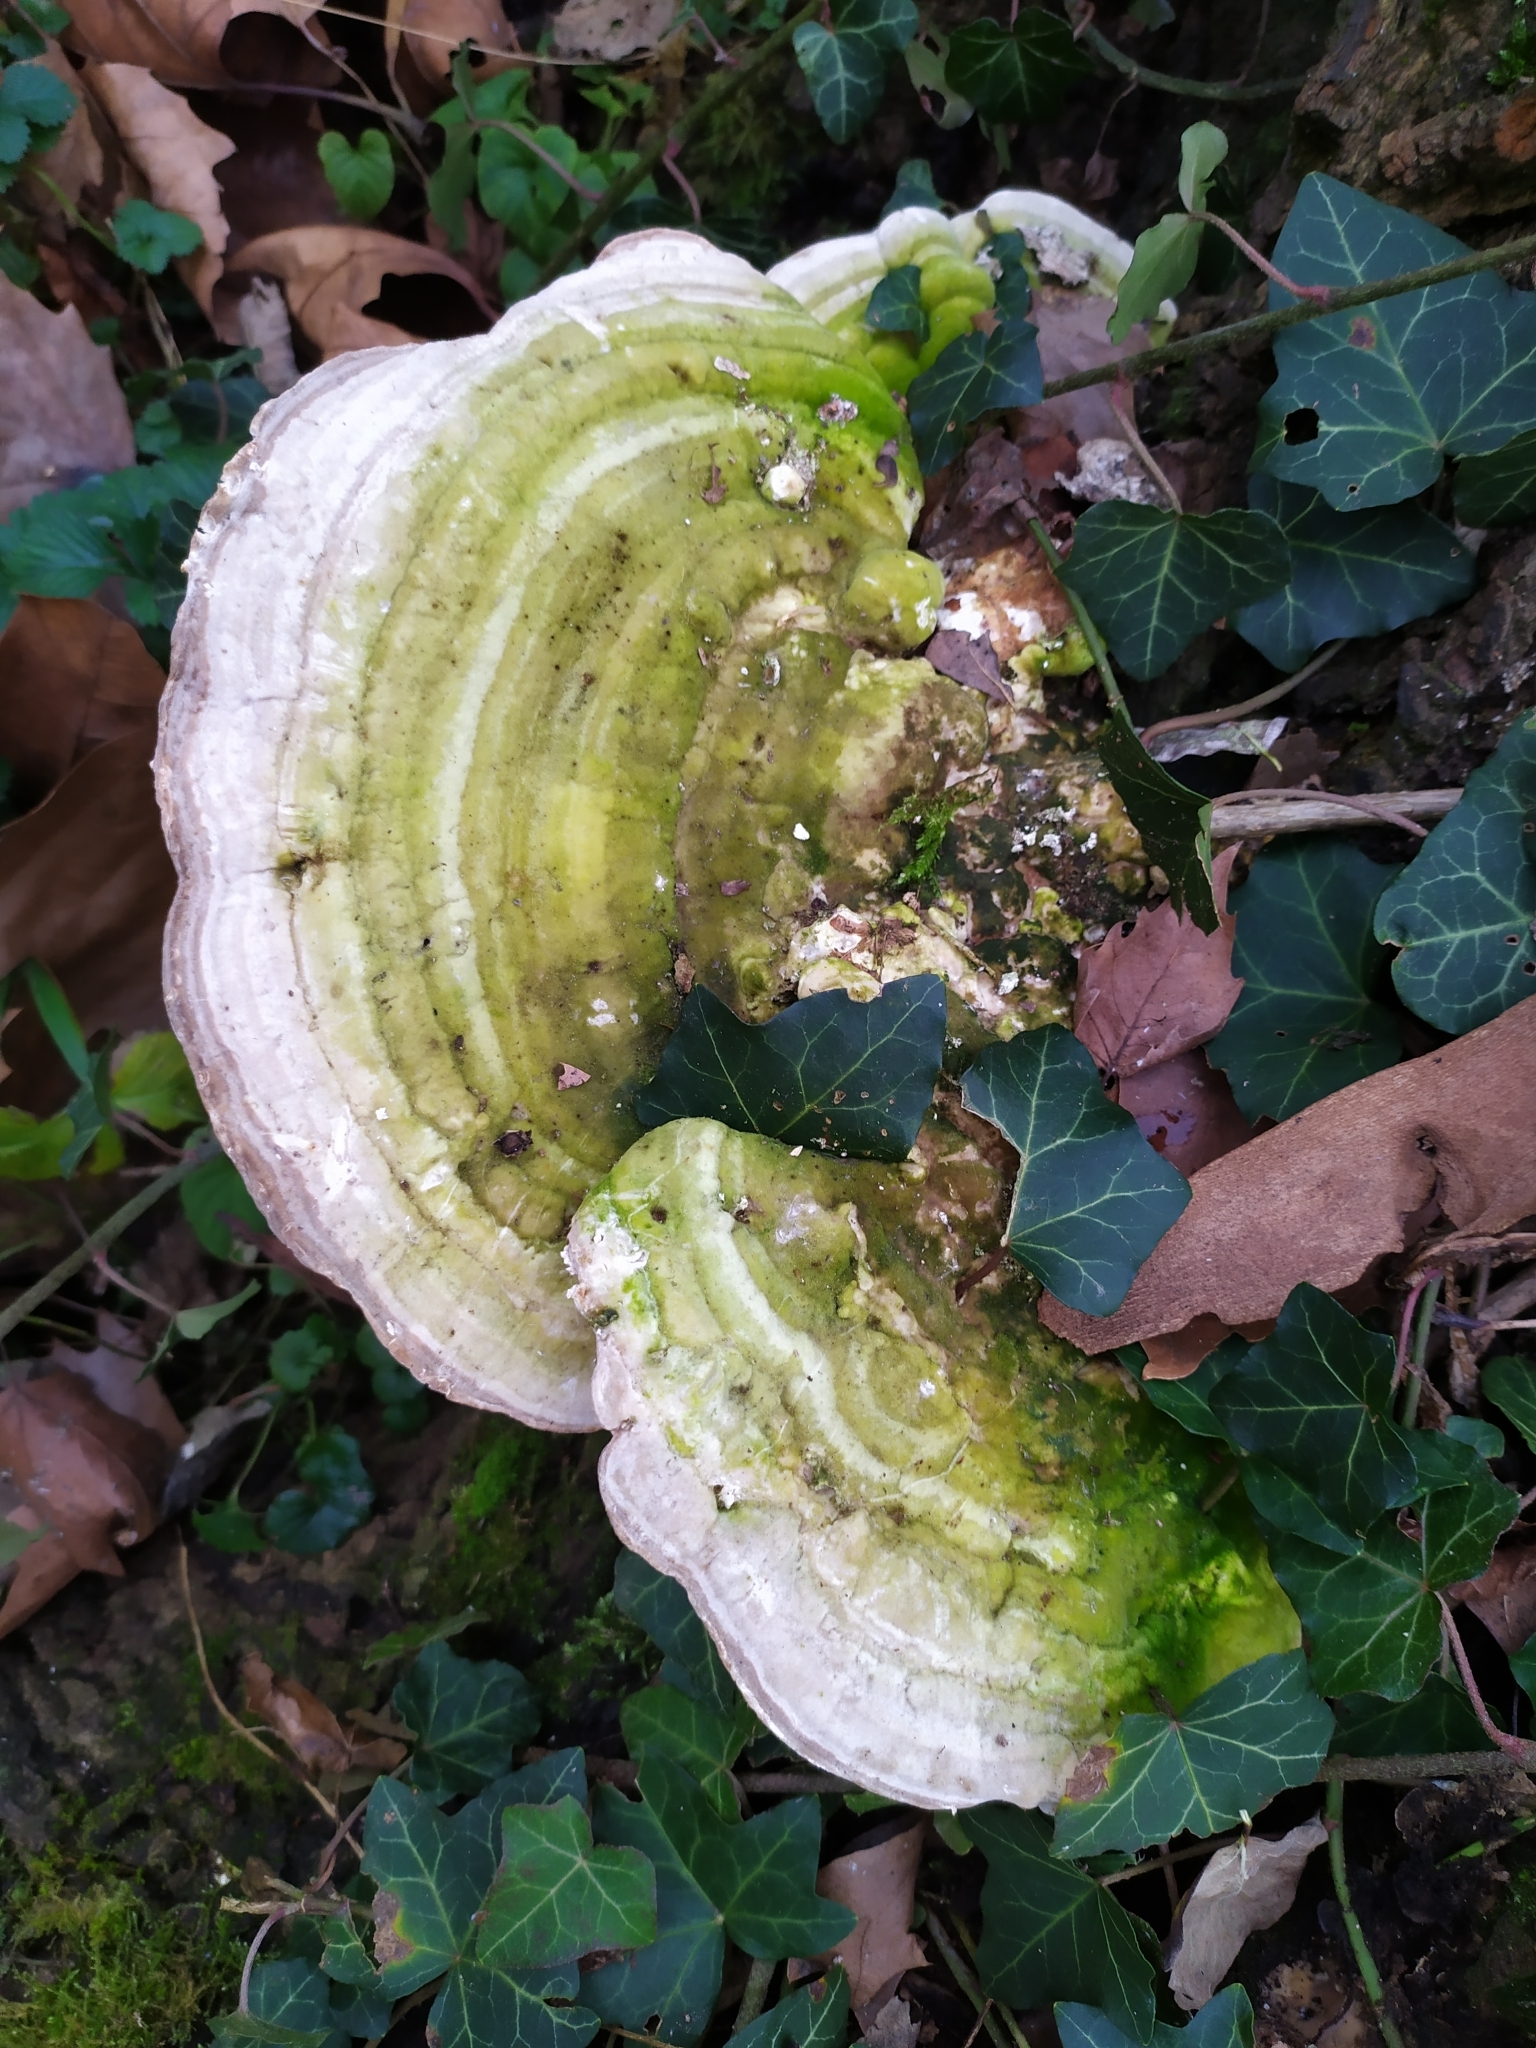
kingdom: Fungi
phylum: Basidiomycota
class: Agaricomycetes
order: Polyporales
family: Polyporaceae
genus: Trametes
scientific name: Trametes gibbosa
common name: Lumpy bracket
